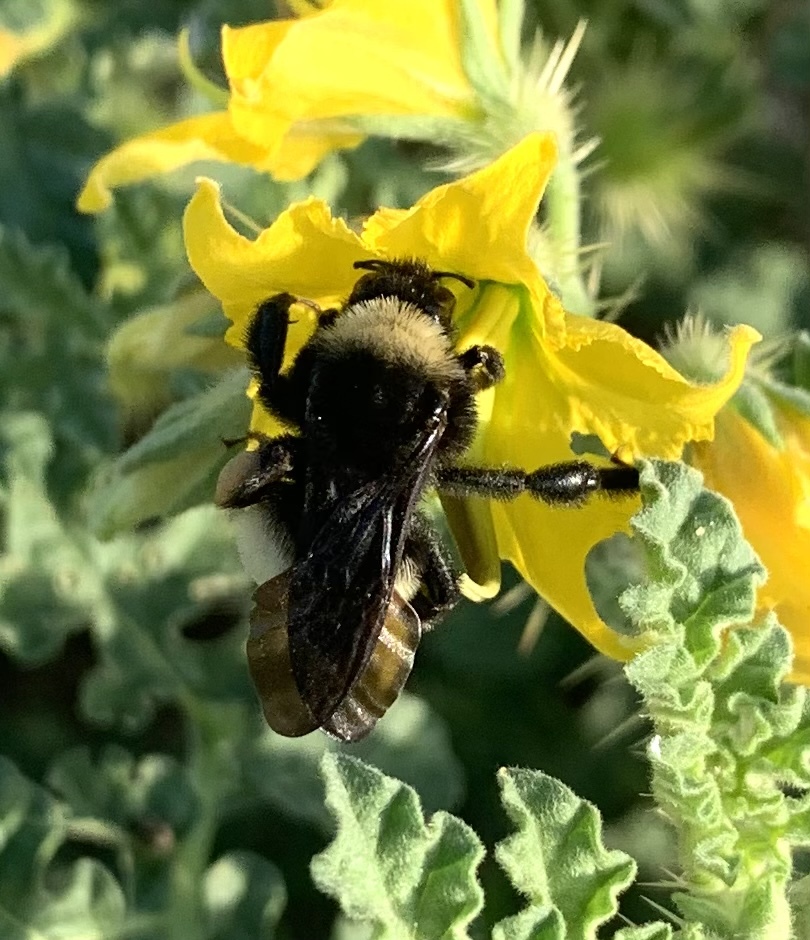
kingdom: Animalia
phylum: Arthropoda
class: Insecta
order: Hymenoptera
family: Apidae
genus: Bombus
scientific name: Bombus pensylvanicus
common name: Bumble bee
